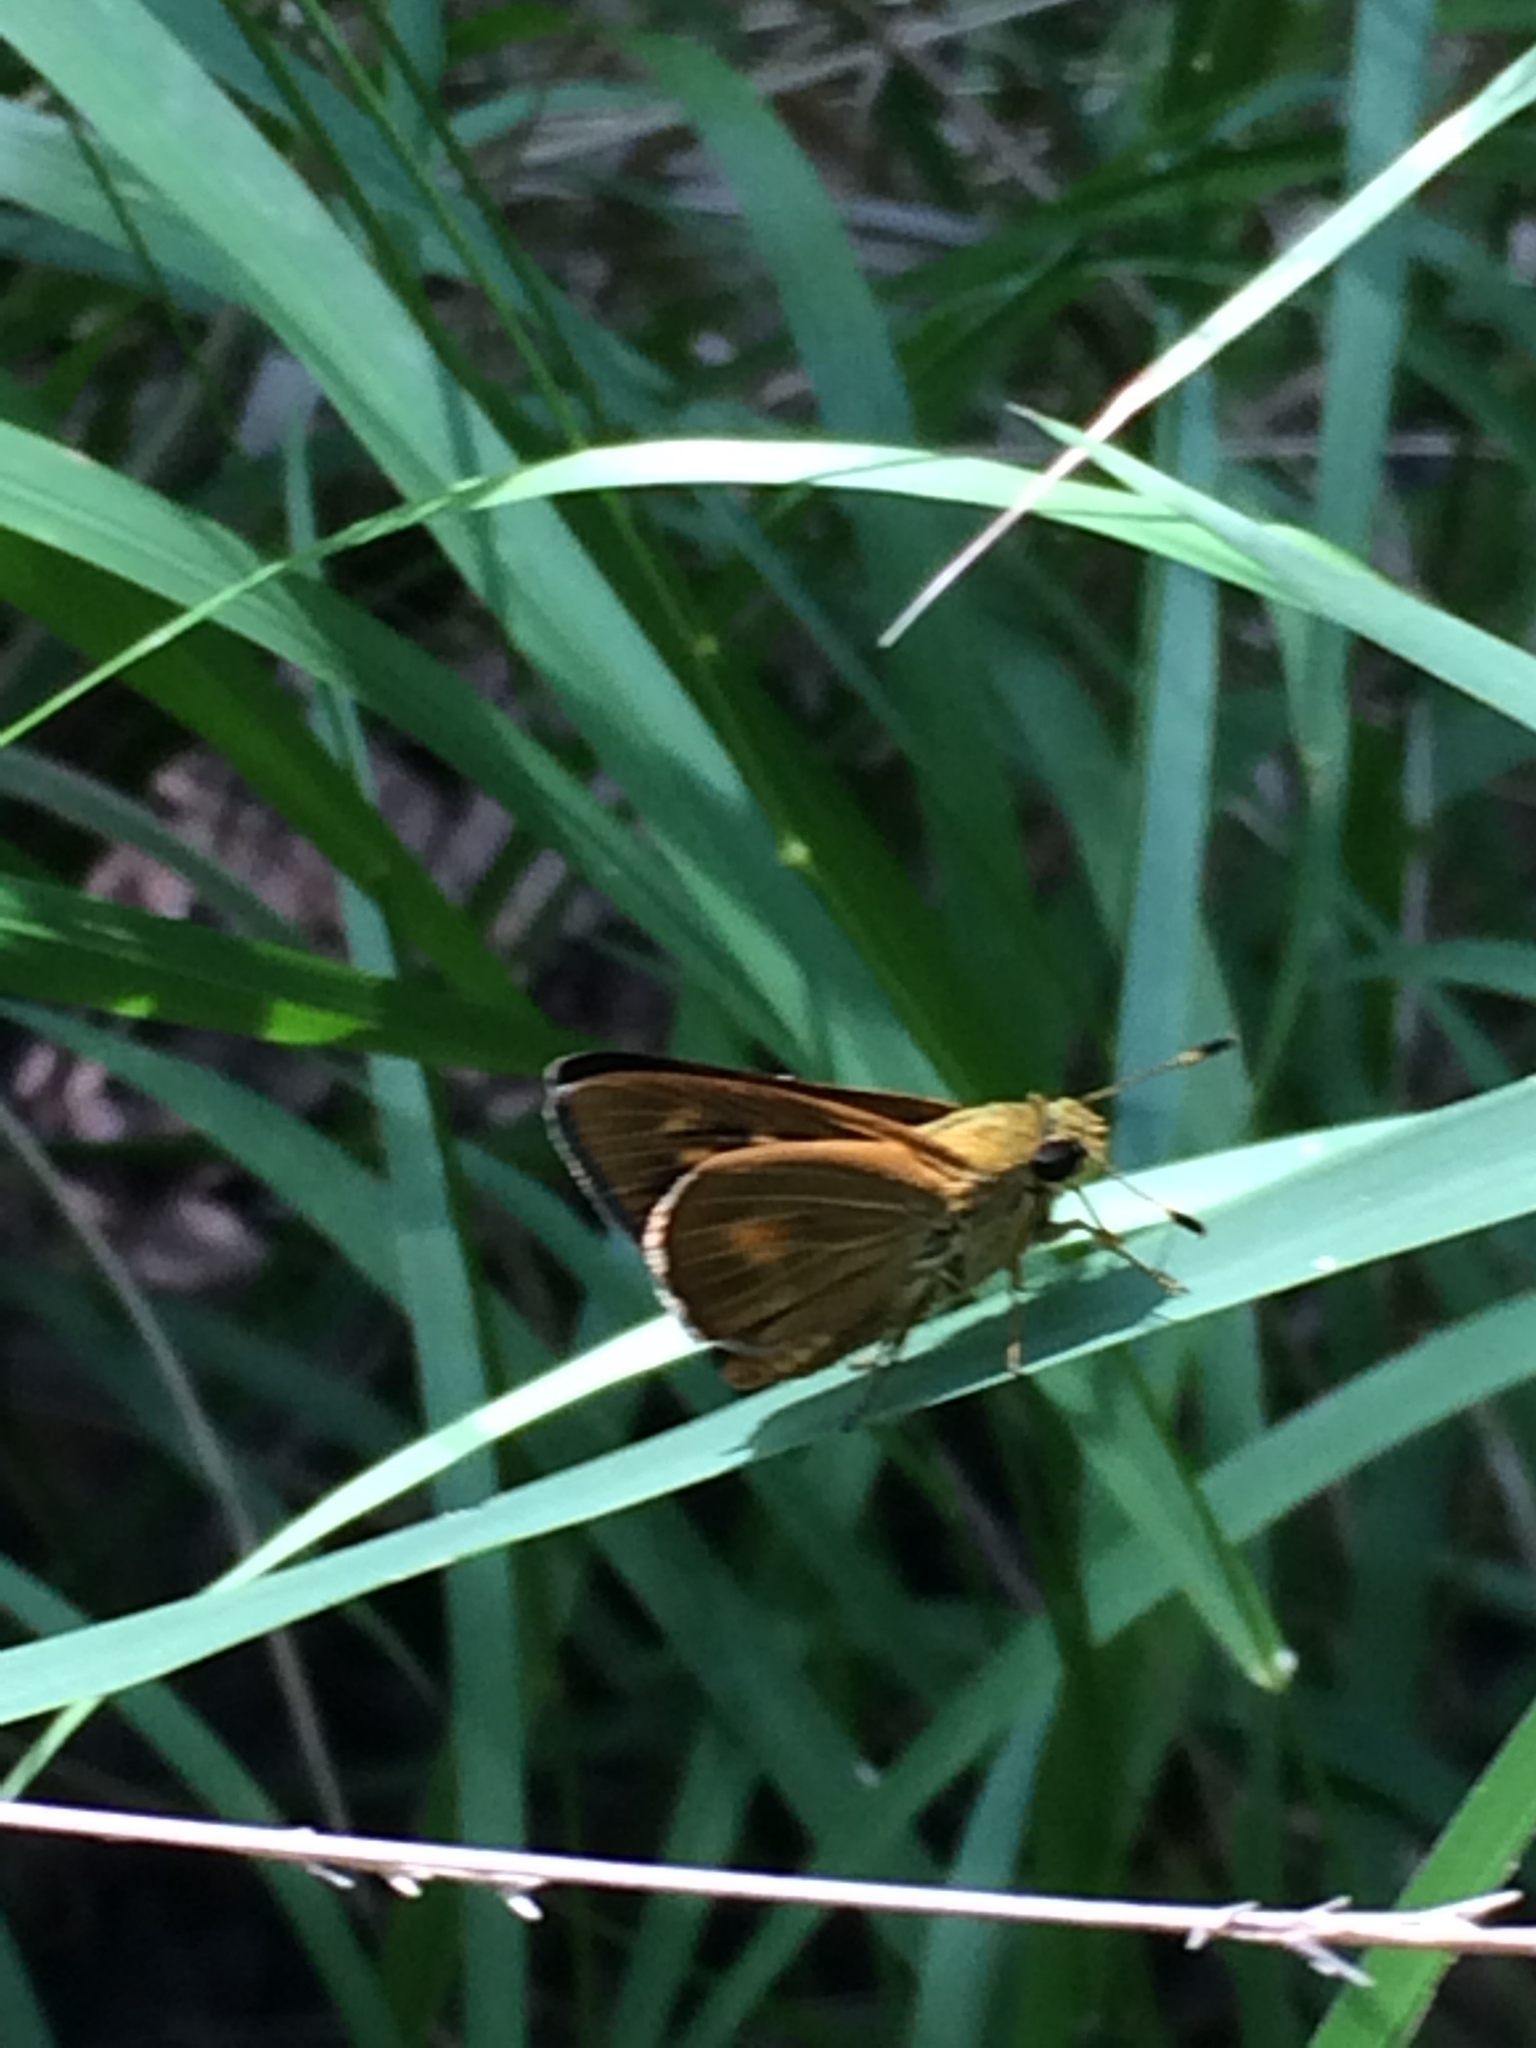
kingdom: Animalia
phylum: Arthropoda
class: Insecta
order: Lepidoptera
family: Hesperiidae
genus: Problema
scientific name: Problema byssus
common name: Byssus skipper
